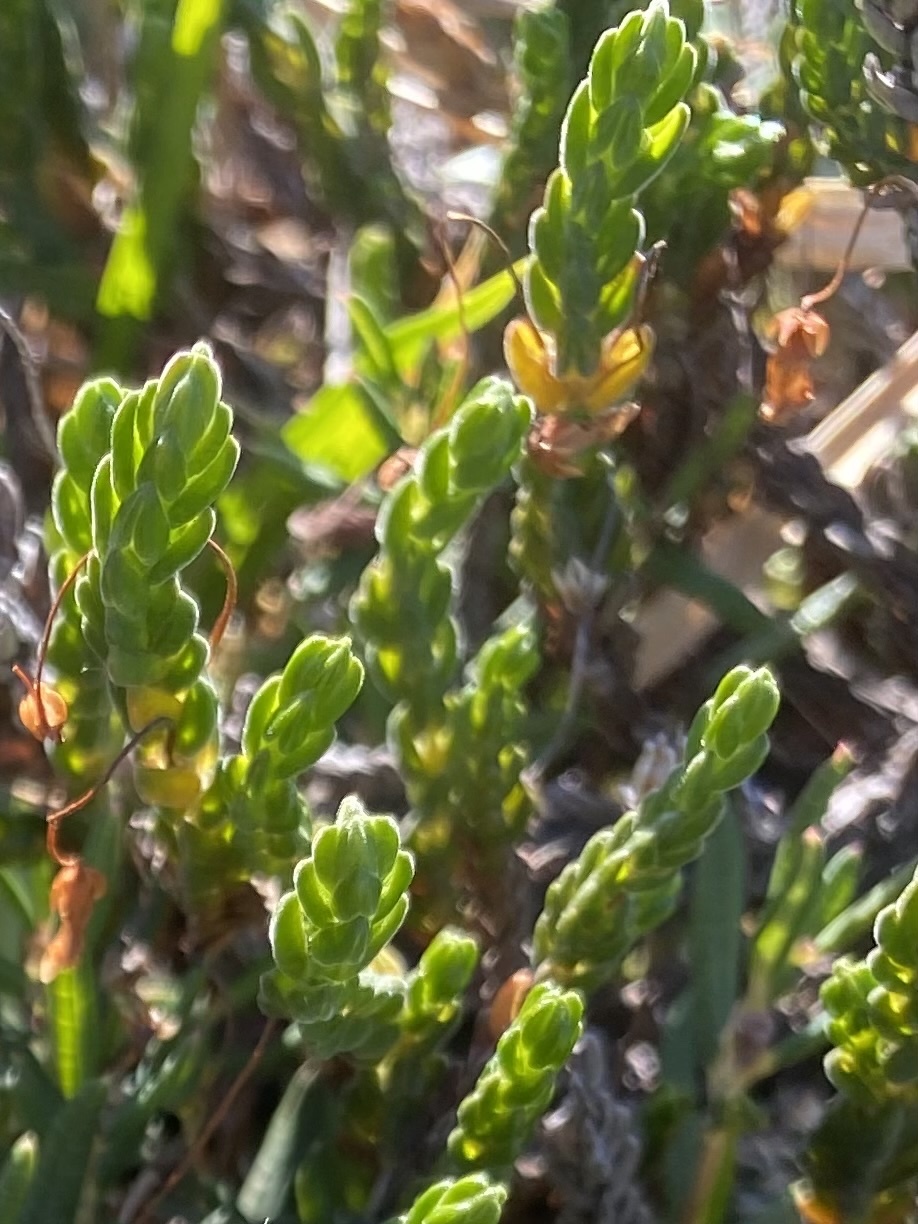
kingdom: Plantae
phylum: Tracheophyta
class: Magnoliopsida
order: Ericales
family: Ericaceae
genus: Cassiope
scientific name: Cassiope tetragona
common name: Arctic bell heather
